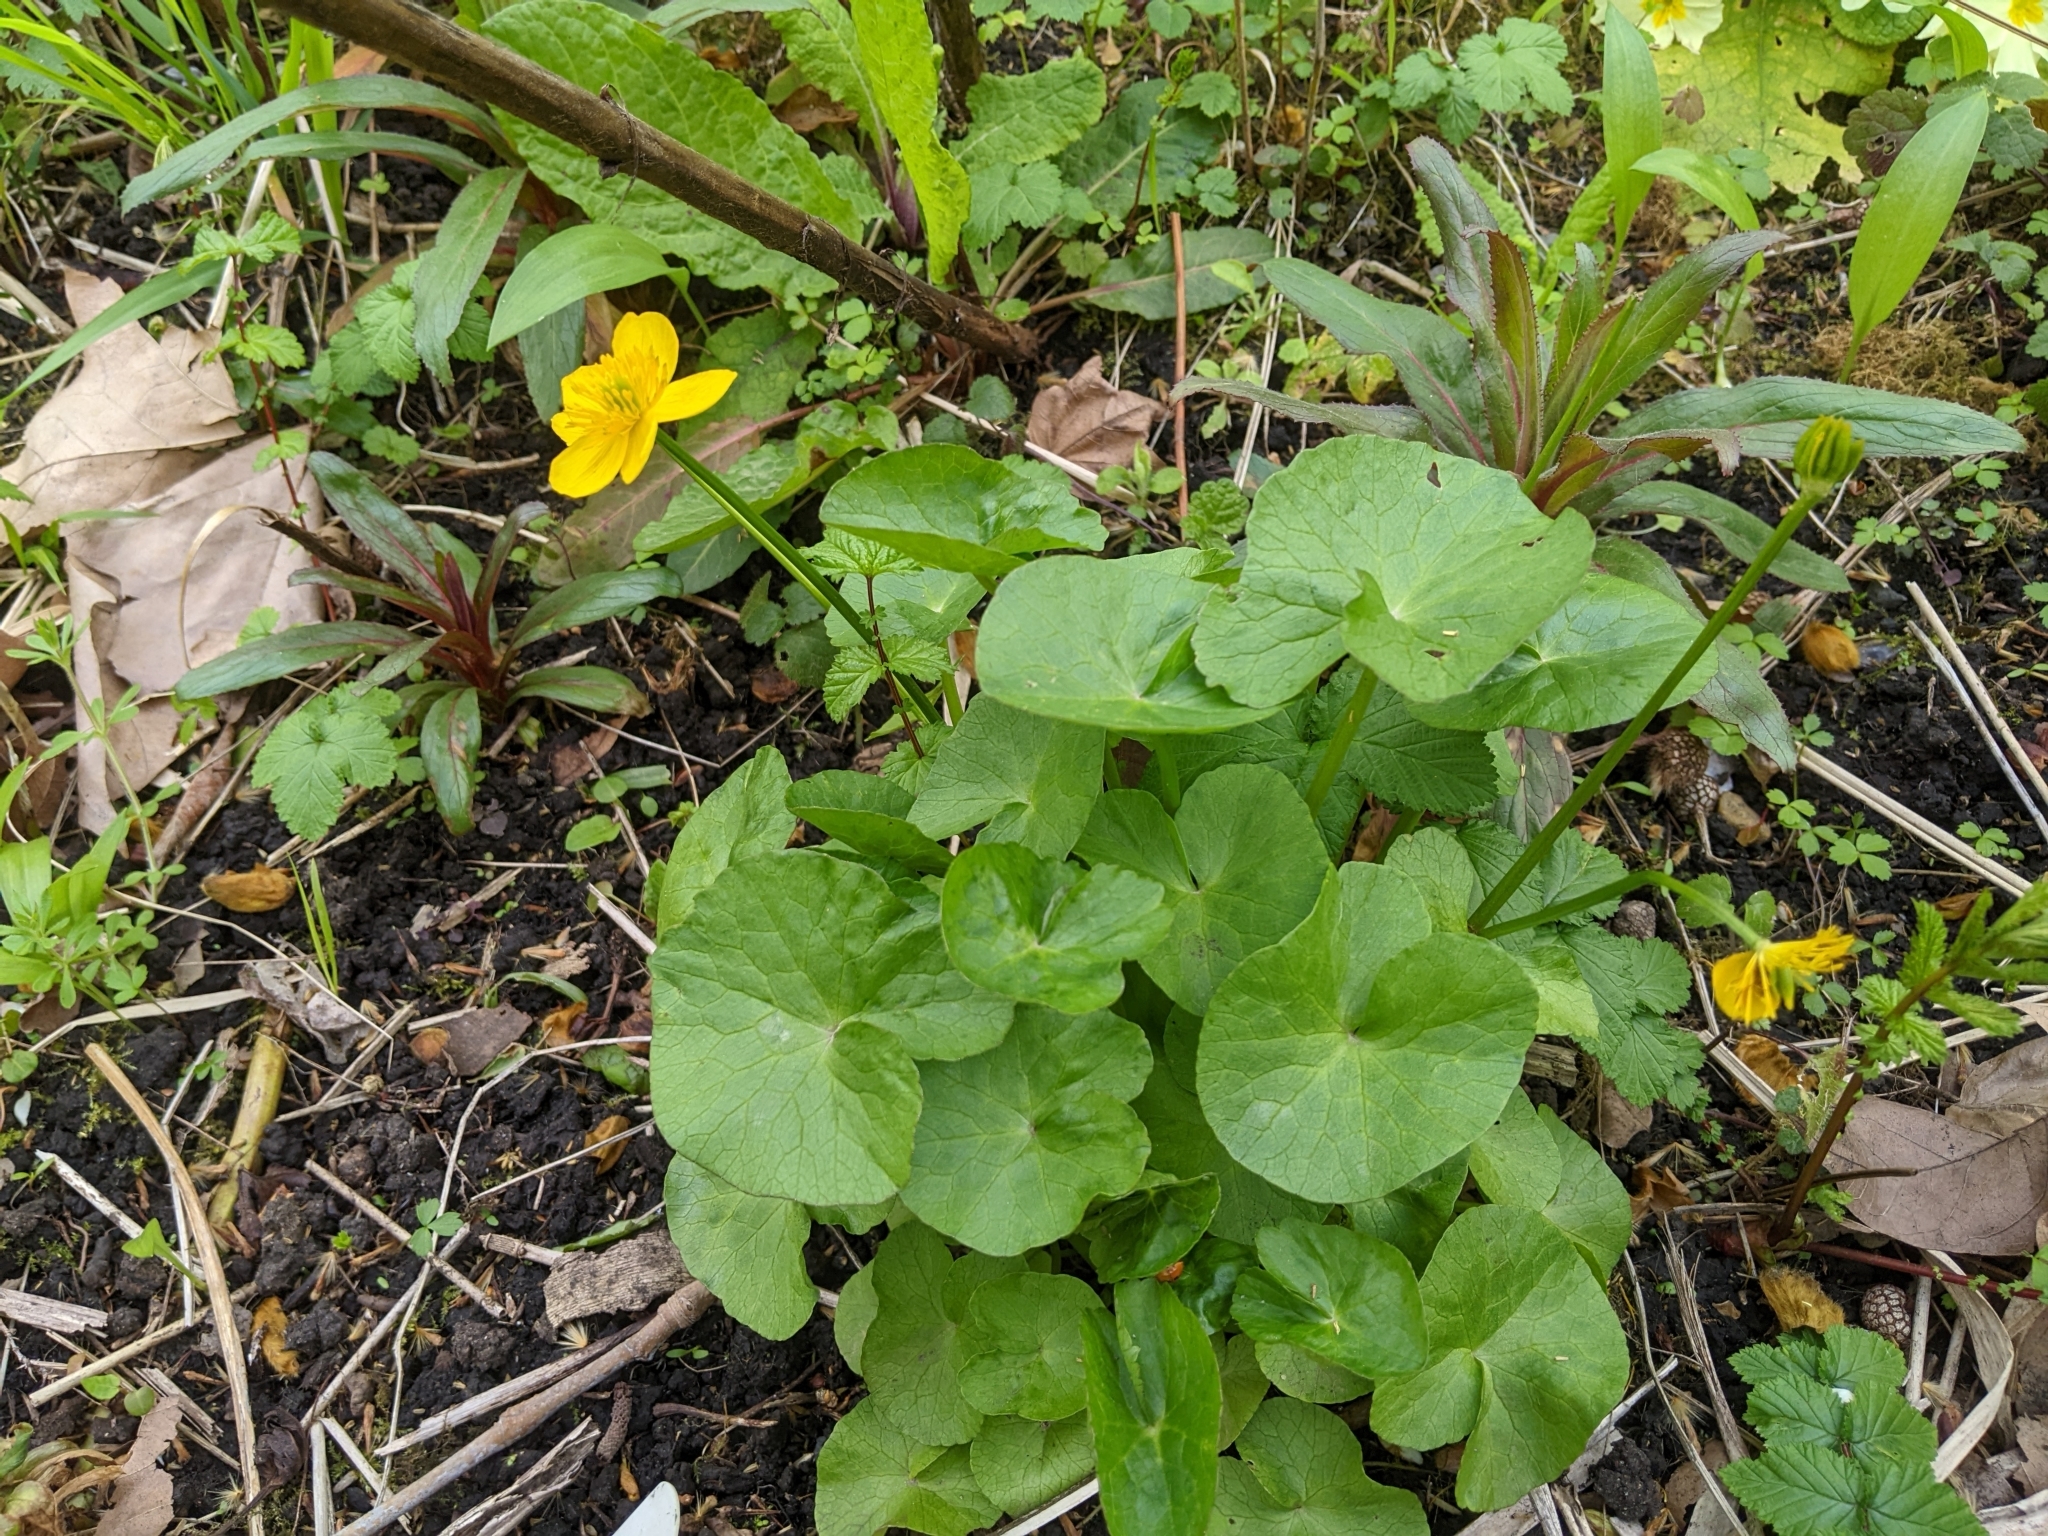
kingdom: Plantae
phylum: Tracheophyta
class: Magnoliopsida
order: Ranunculales
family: Ranunculaceae
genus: Caltha
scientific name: Caltha palustris
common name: Marsh marigold
